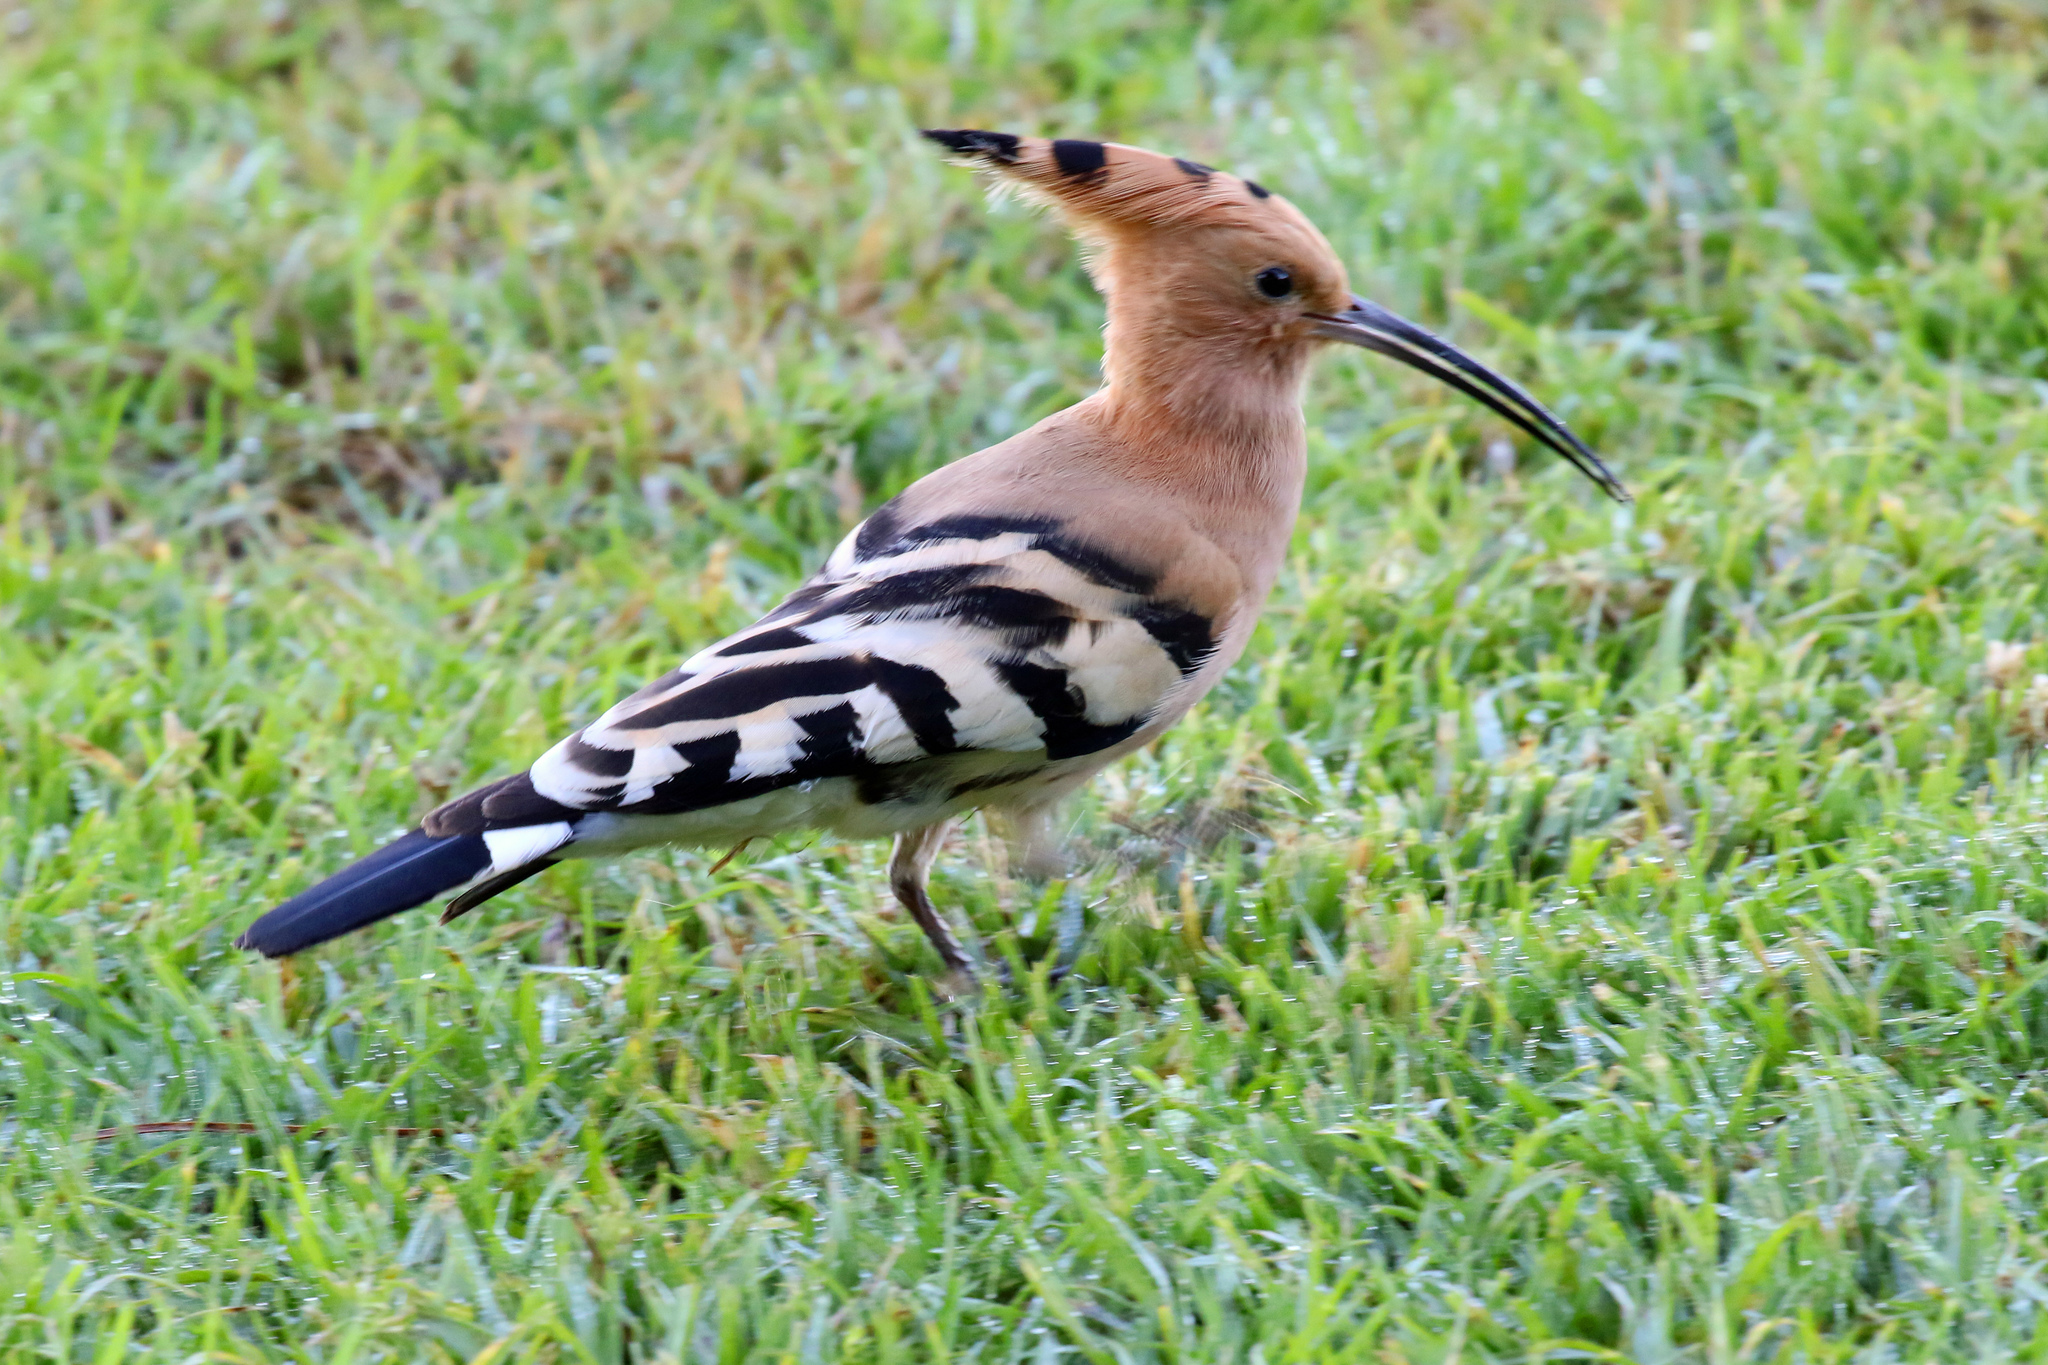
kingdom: Animalia
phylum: Chordata
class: Aves
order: Bucerotiformes
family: Upupidae
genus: Upupa
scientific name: Upupa epops
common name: Eurasian hoopoe
